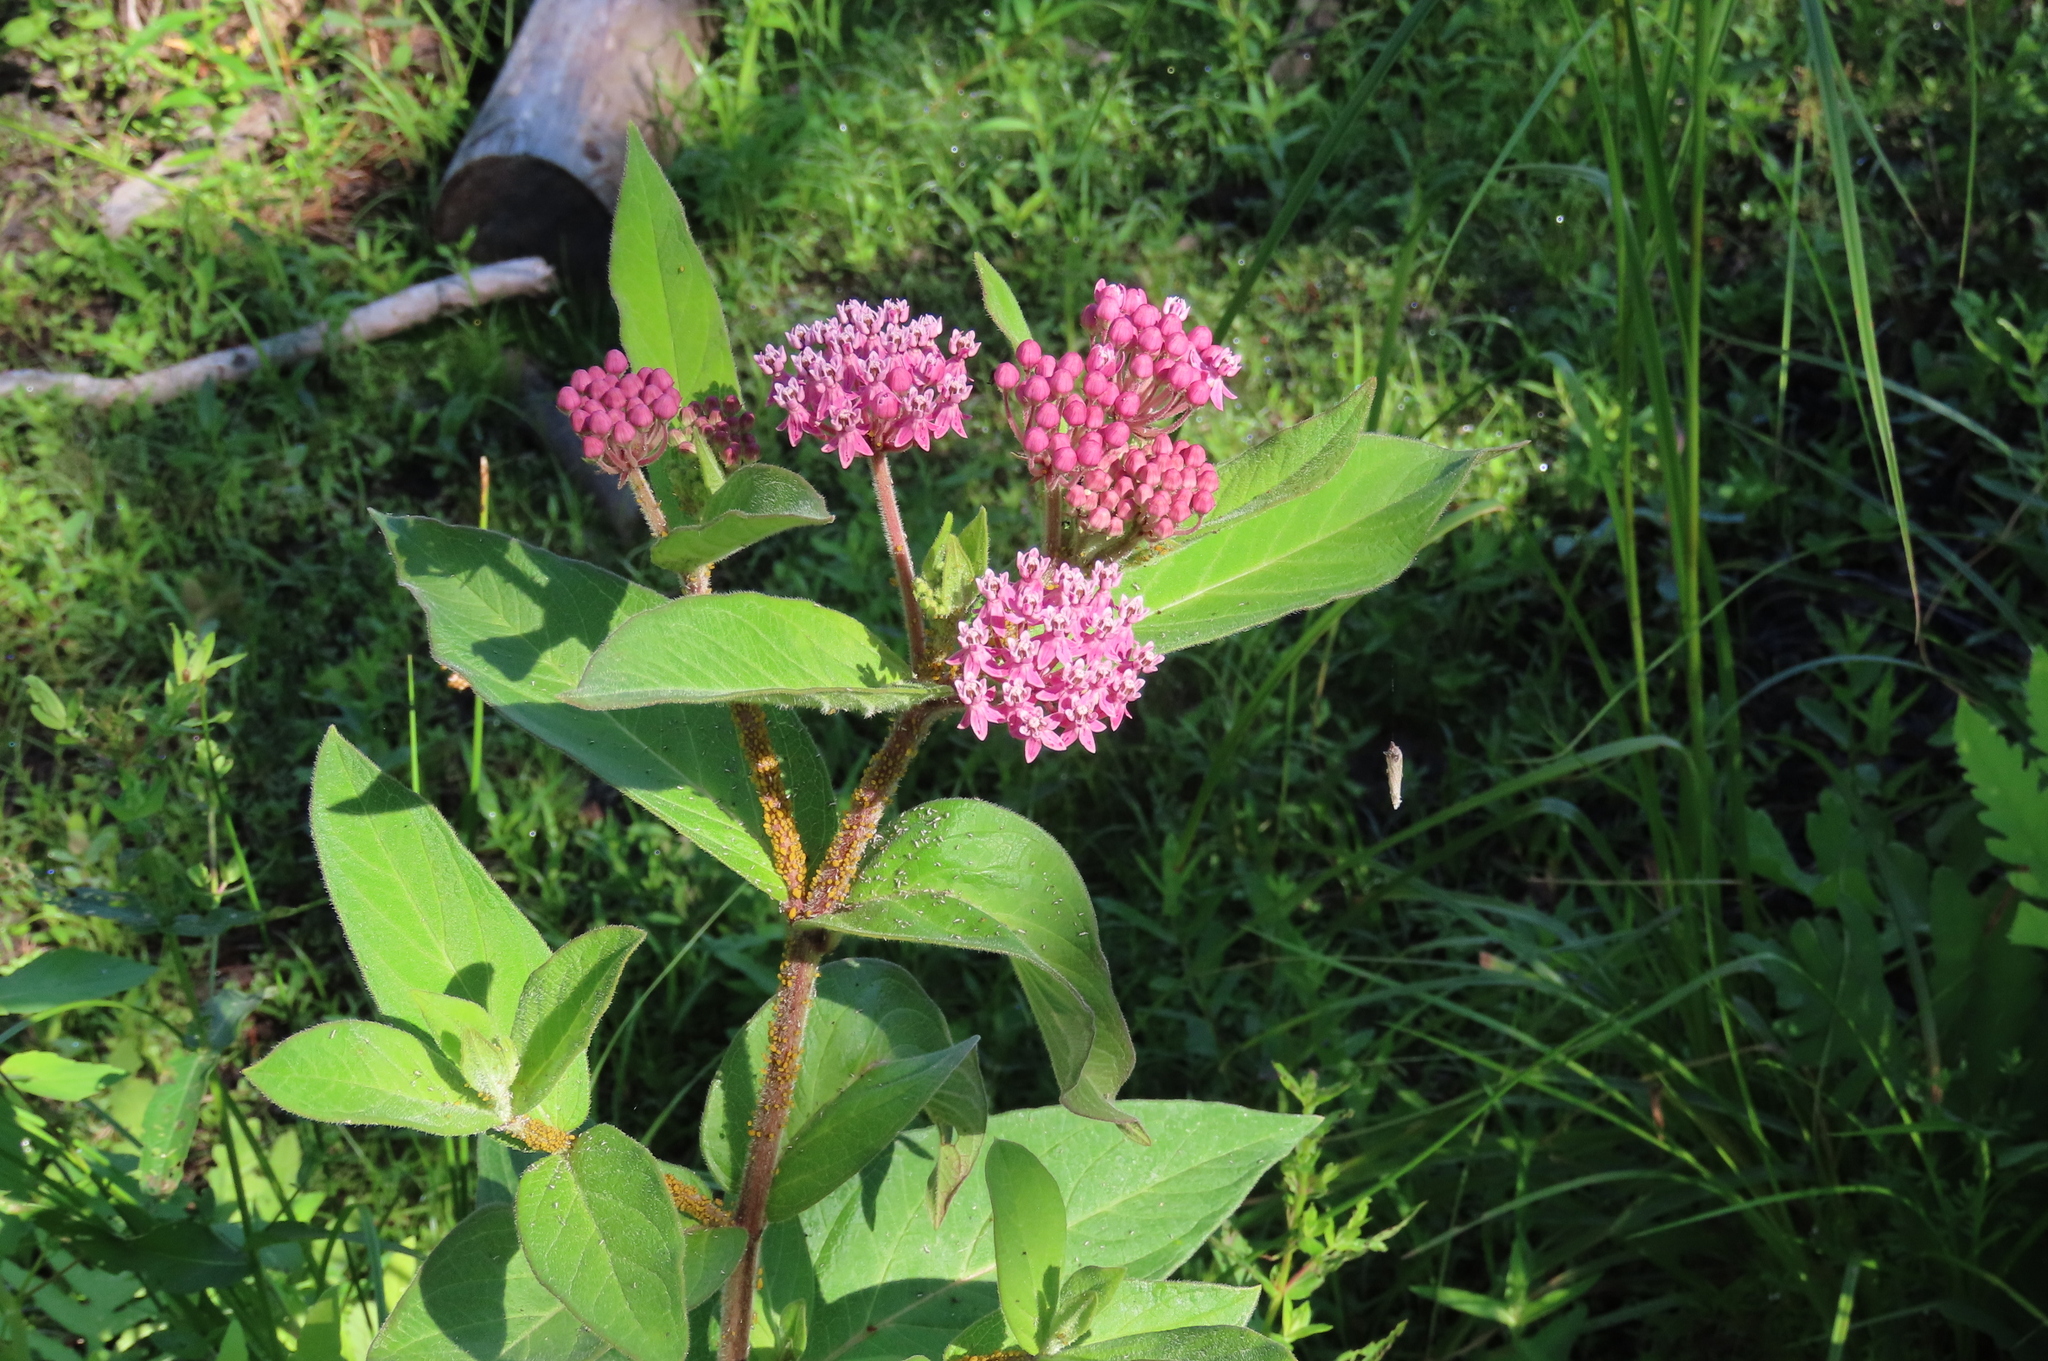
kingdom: Animalia
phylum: Arthropoda
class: Insecta
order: Hemiptera
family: Aphididae
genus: Aphis
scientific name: Aphis nerii
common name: Oleander aphid
